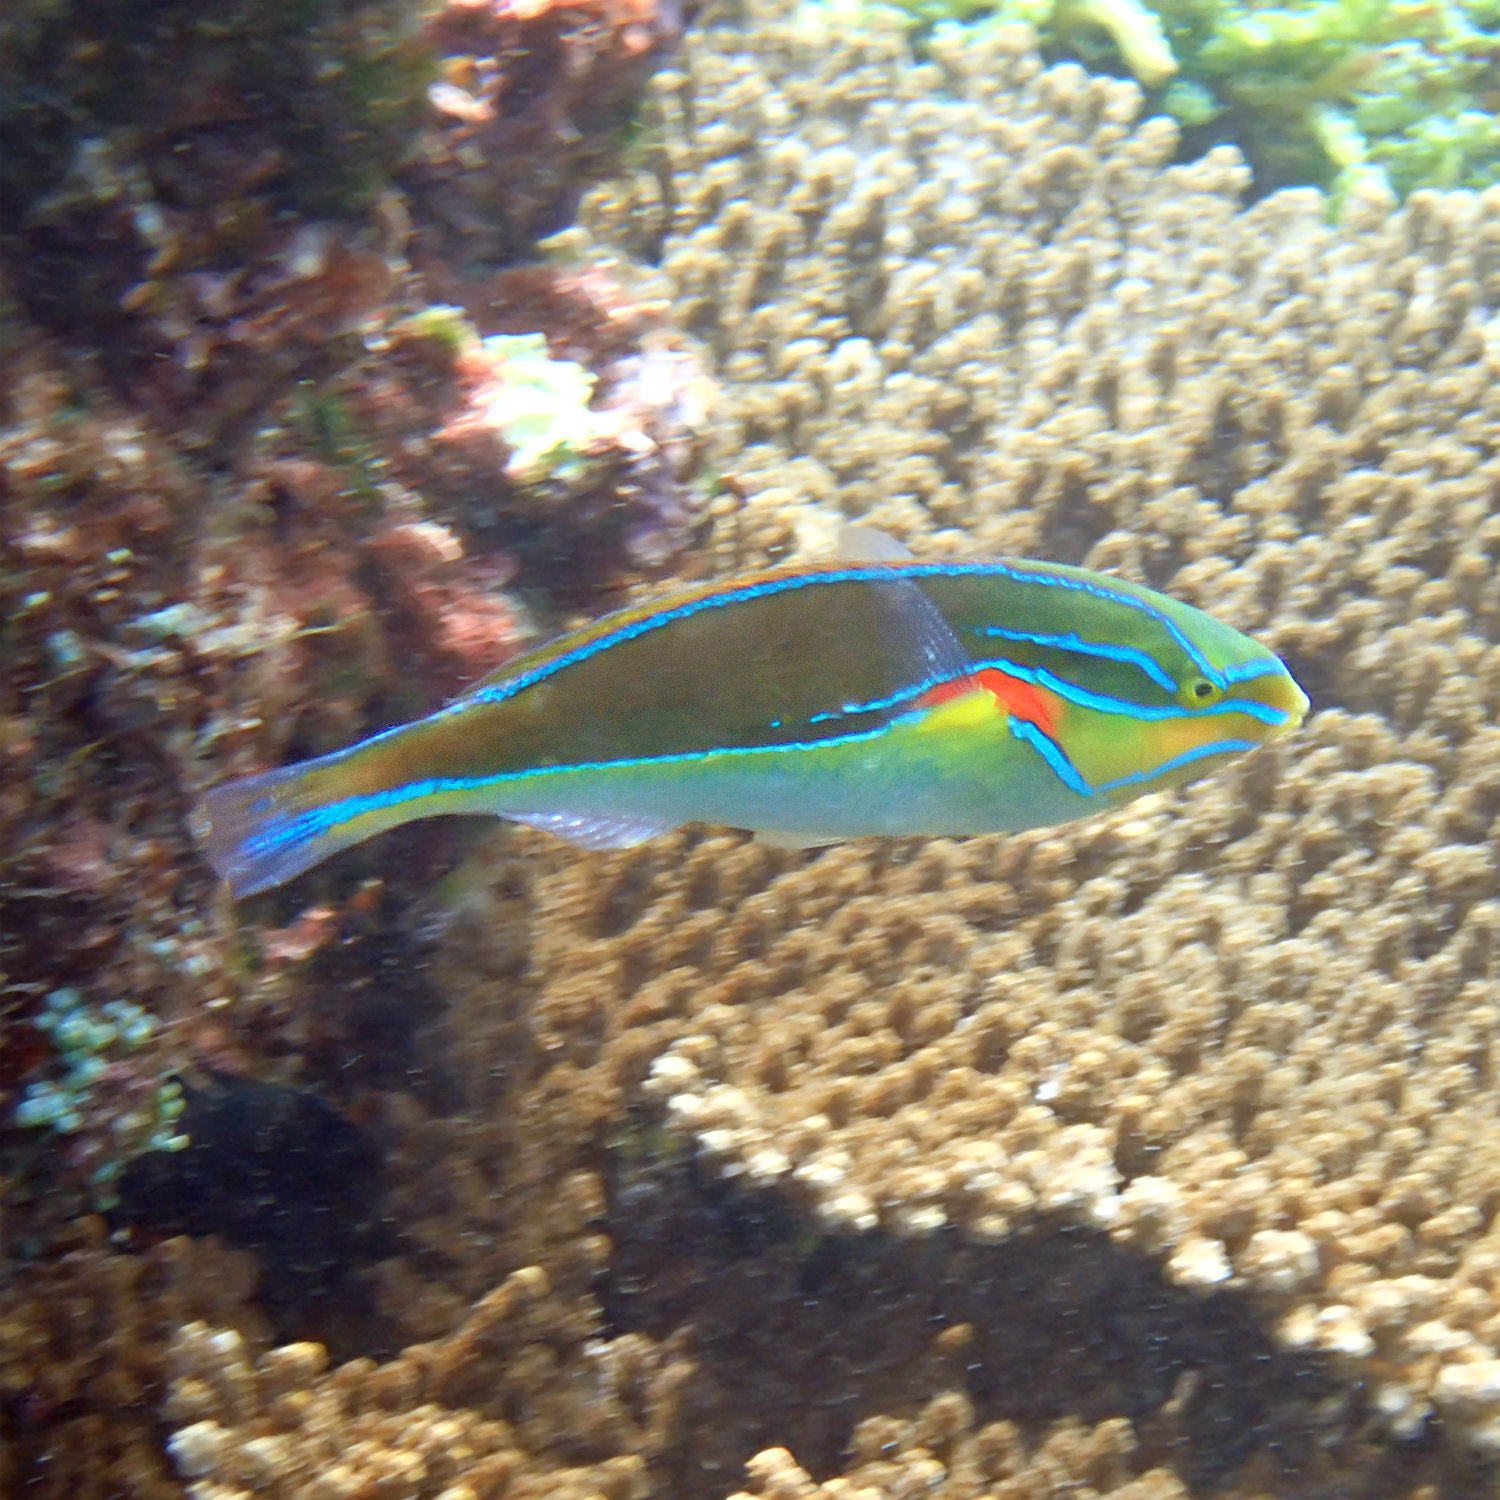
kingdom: Animalia
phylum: Chordata
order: Perciformes
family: Labridae
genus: Stethojulis
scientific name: Stethojulis bandanensis
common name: Red shoulder wrasse
